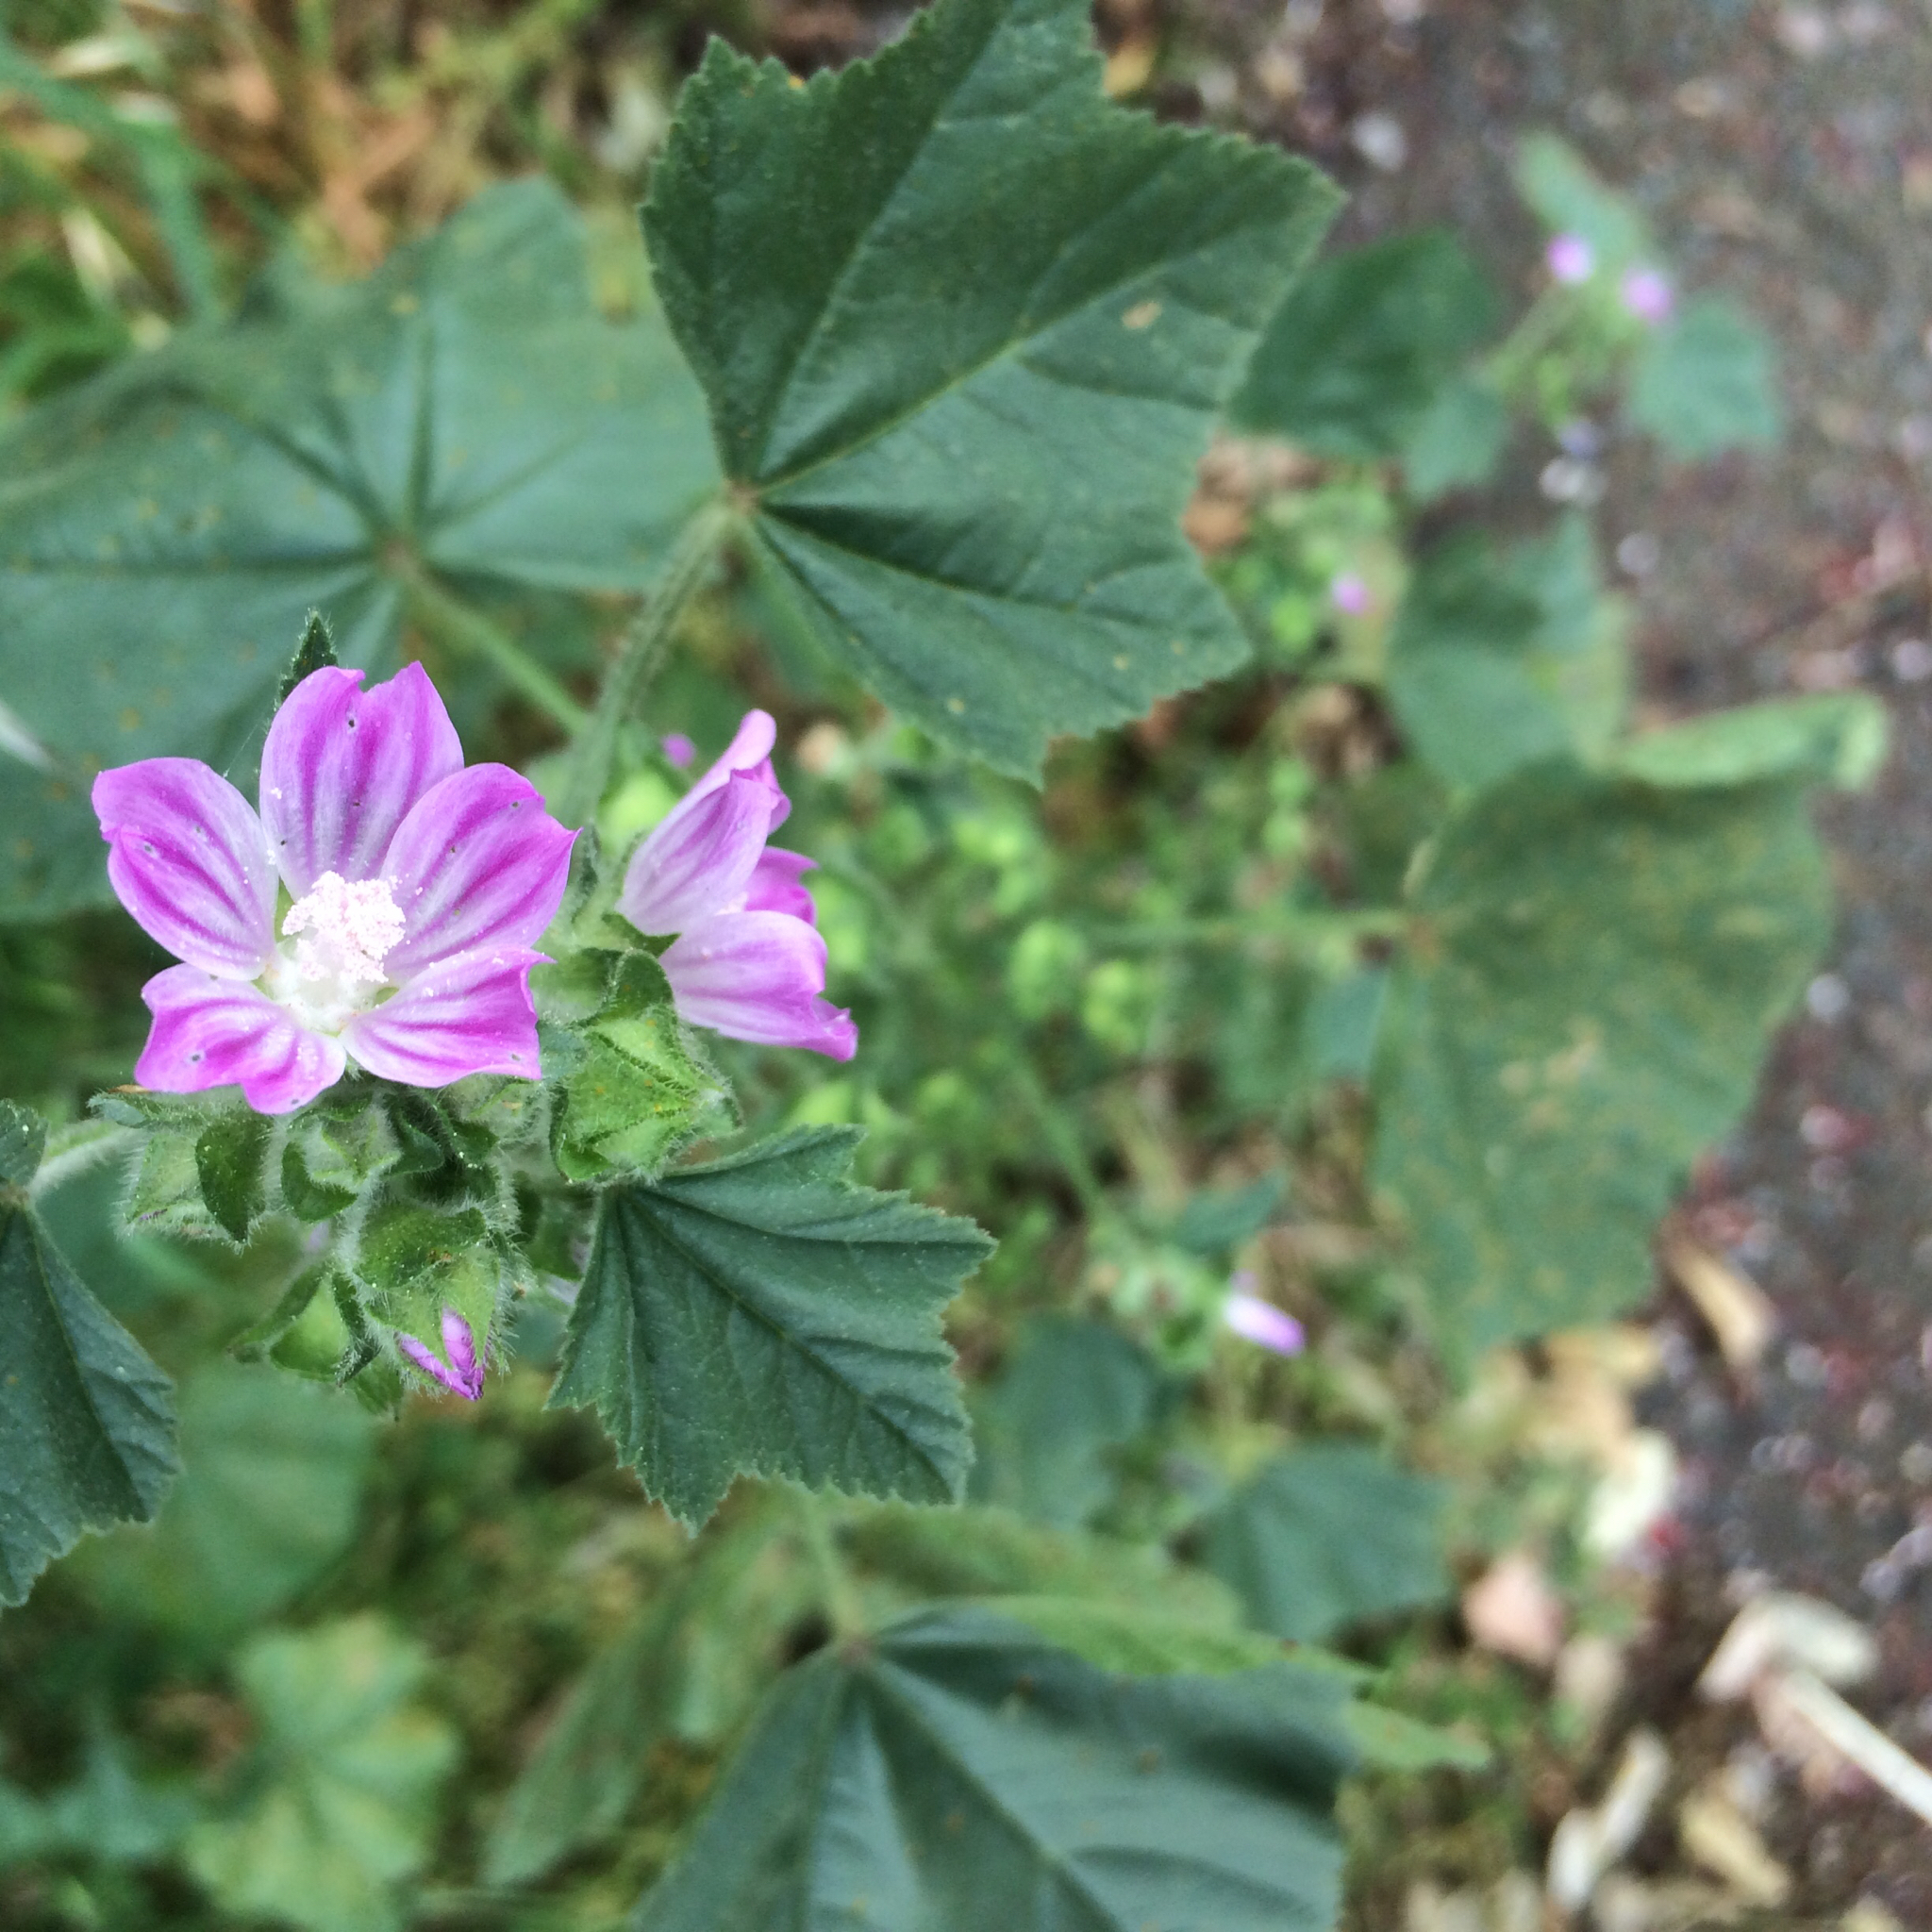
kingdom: Plantae
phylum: Tracheophyta
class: Magnoliopsida
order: Malvales
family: Malvaceae
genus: Malva
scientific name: Malva multiflora
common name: Cheeseweed
